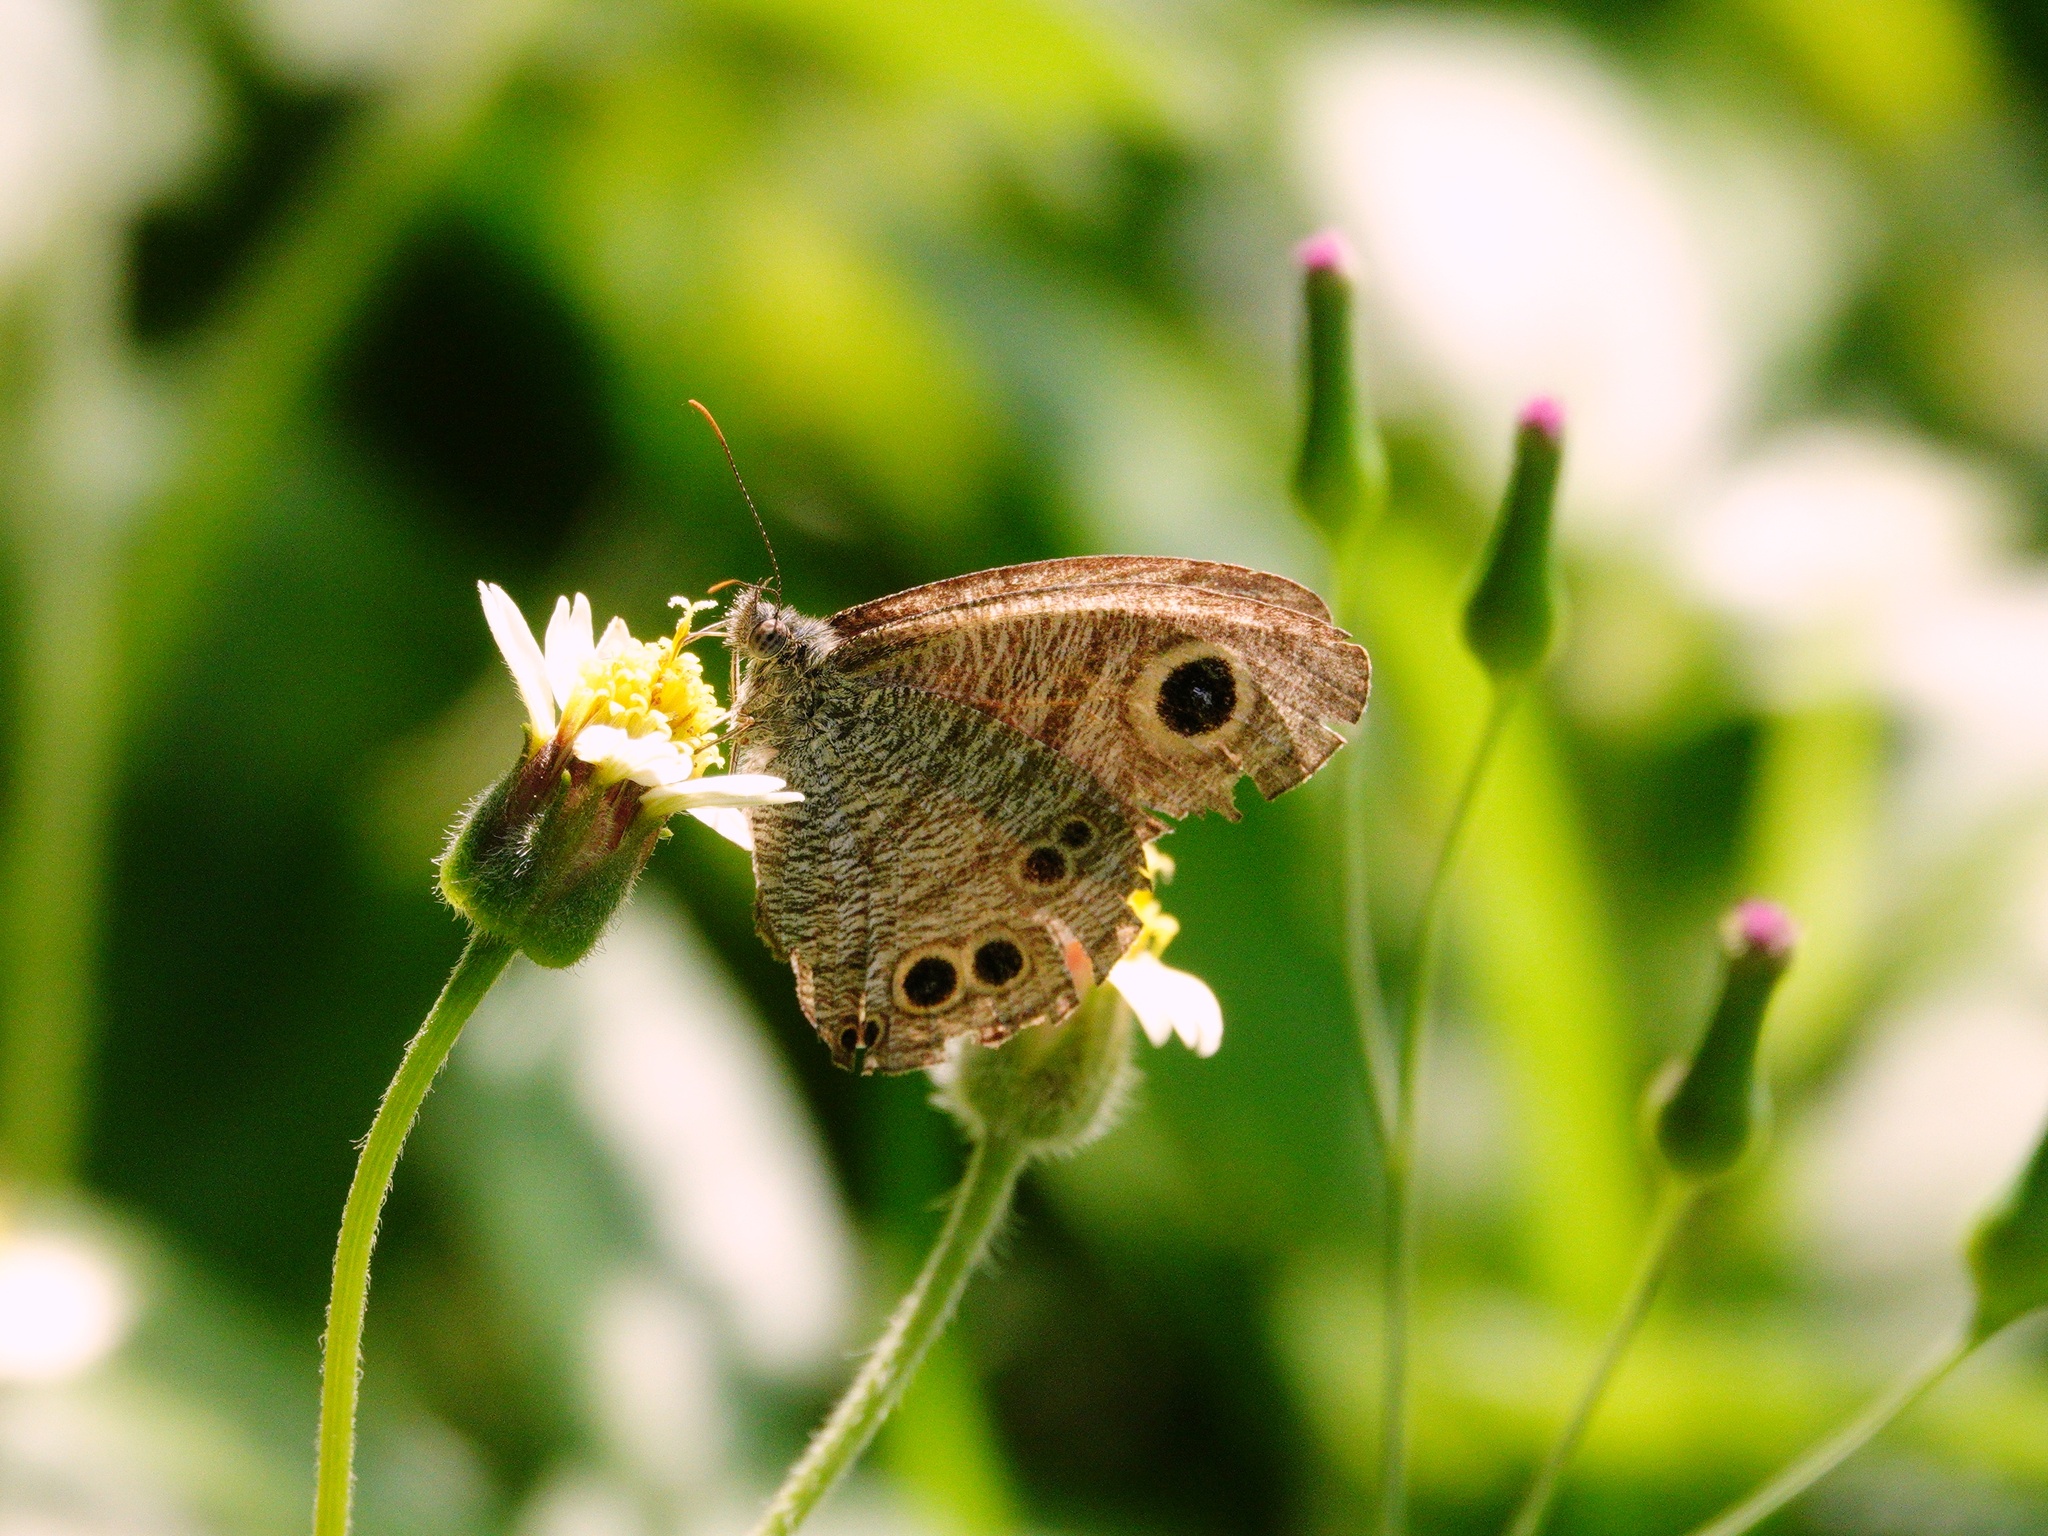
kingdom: Animalia
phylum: Arthropoda
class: Insecta
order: Lepidoptera
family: Nymphalidae
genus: Ypthima
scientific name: Ypthima baldus
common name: Common five-ring
